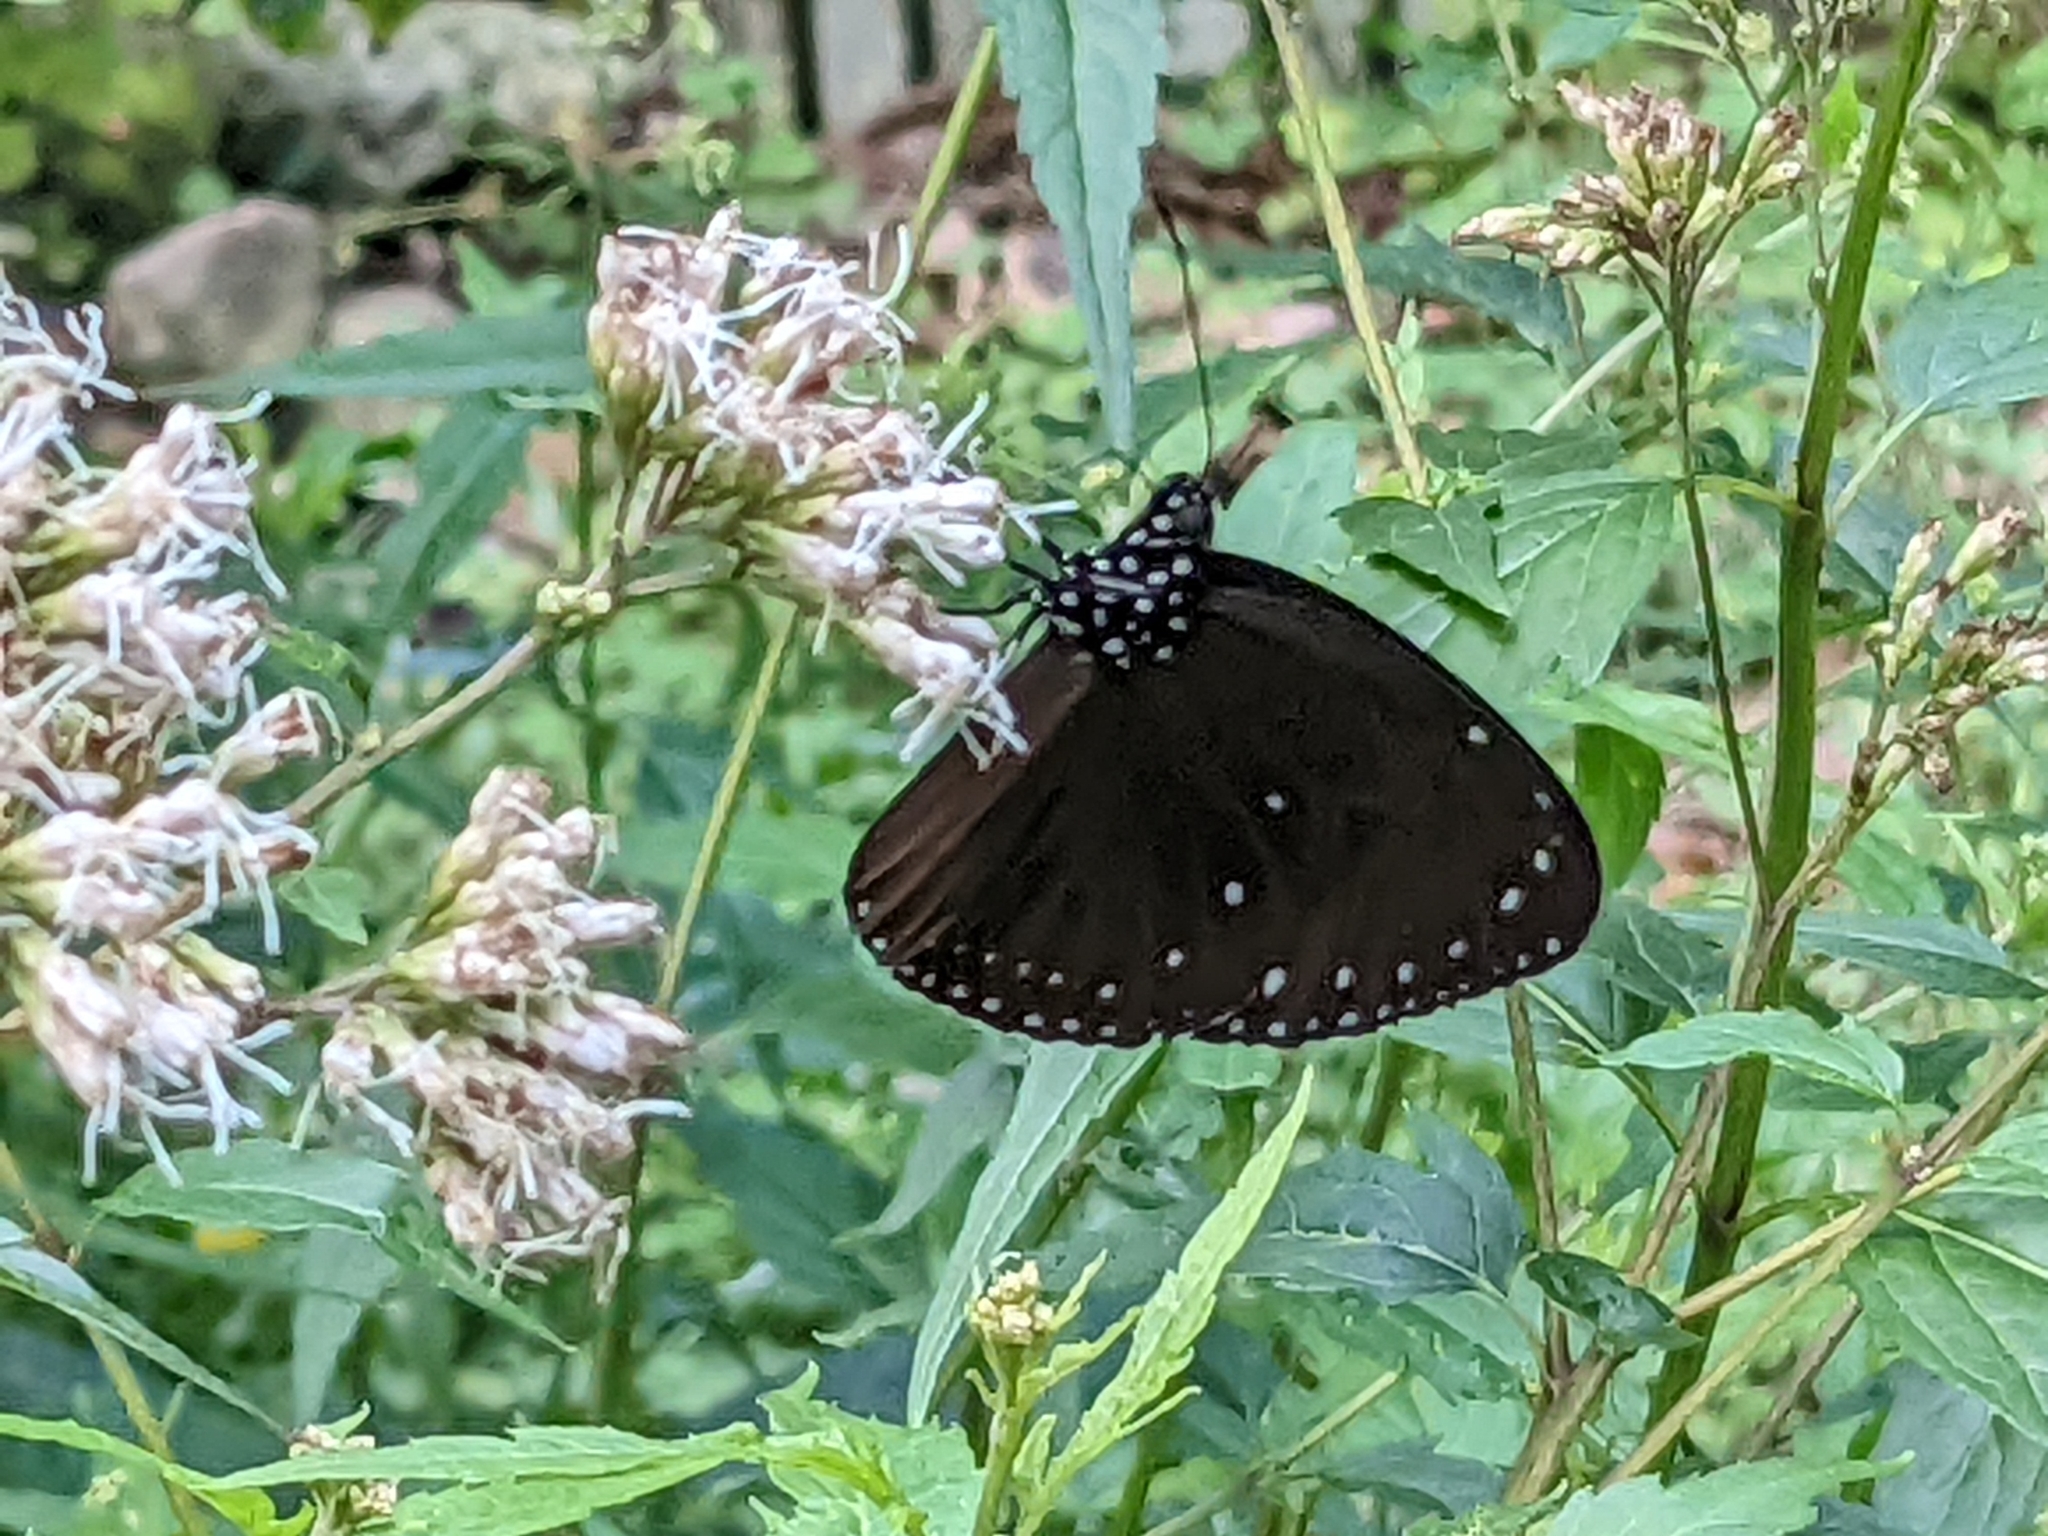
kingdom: Animalia
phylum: Arthropoda
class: Insecta
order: Lepidoptera
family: Nymphalidae
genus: Euploea
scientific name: Euploea tulliolus
